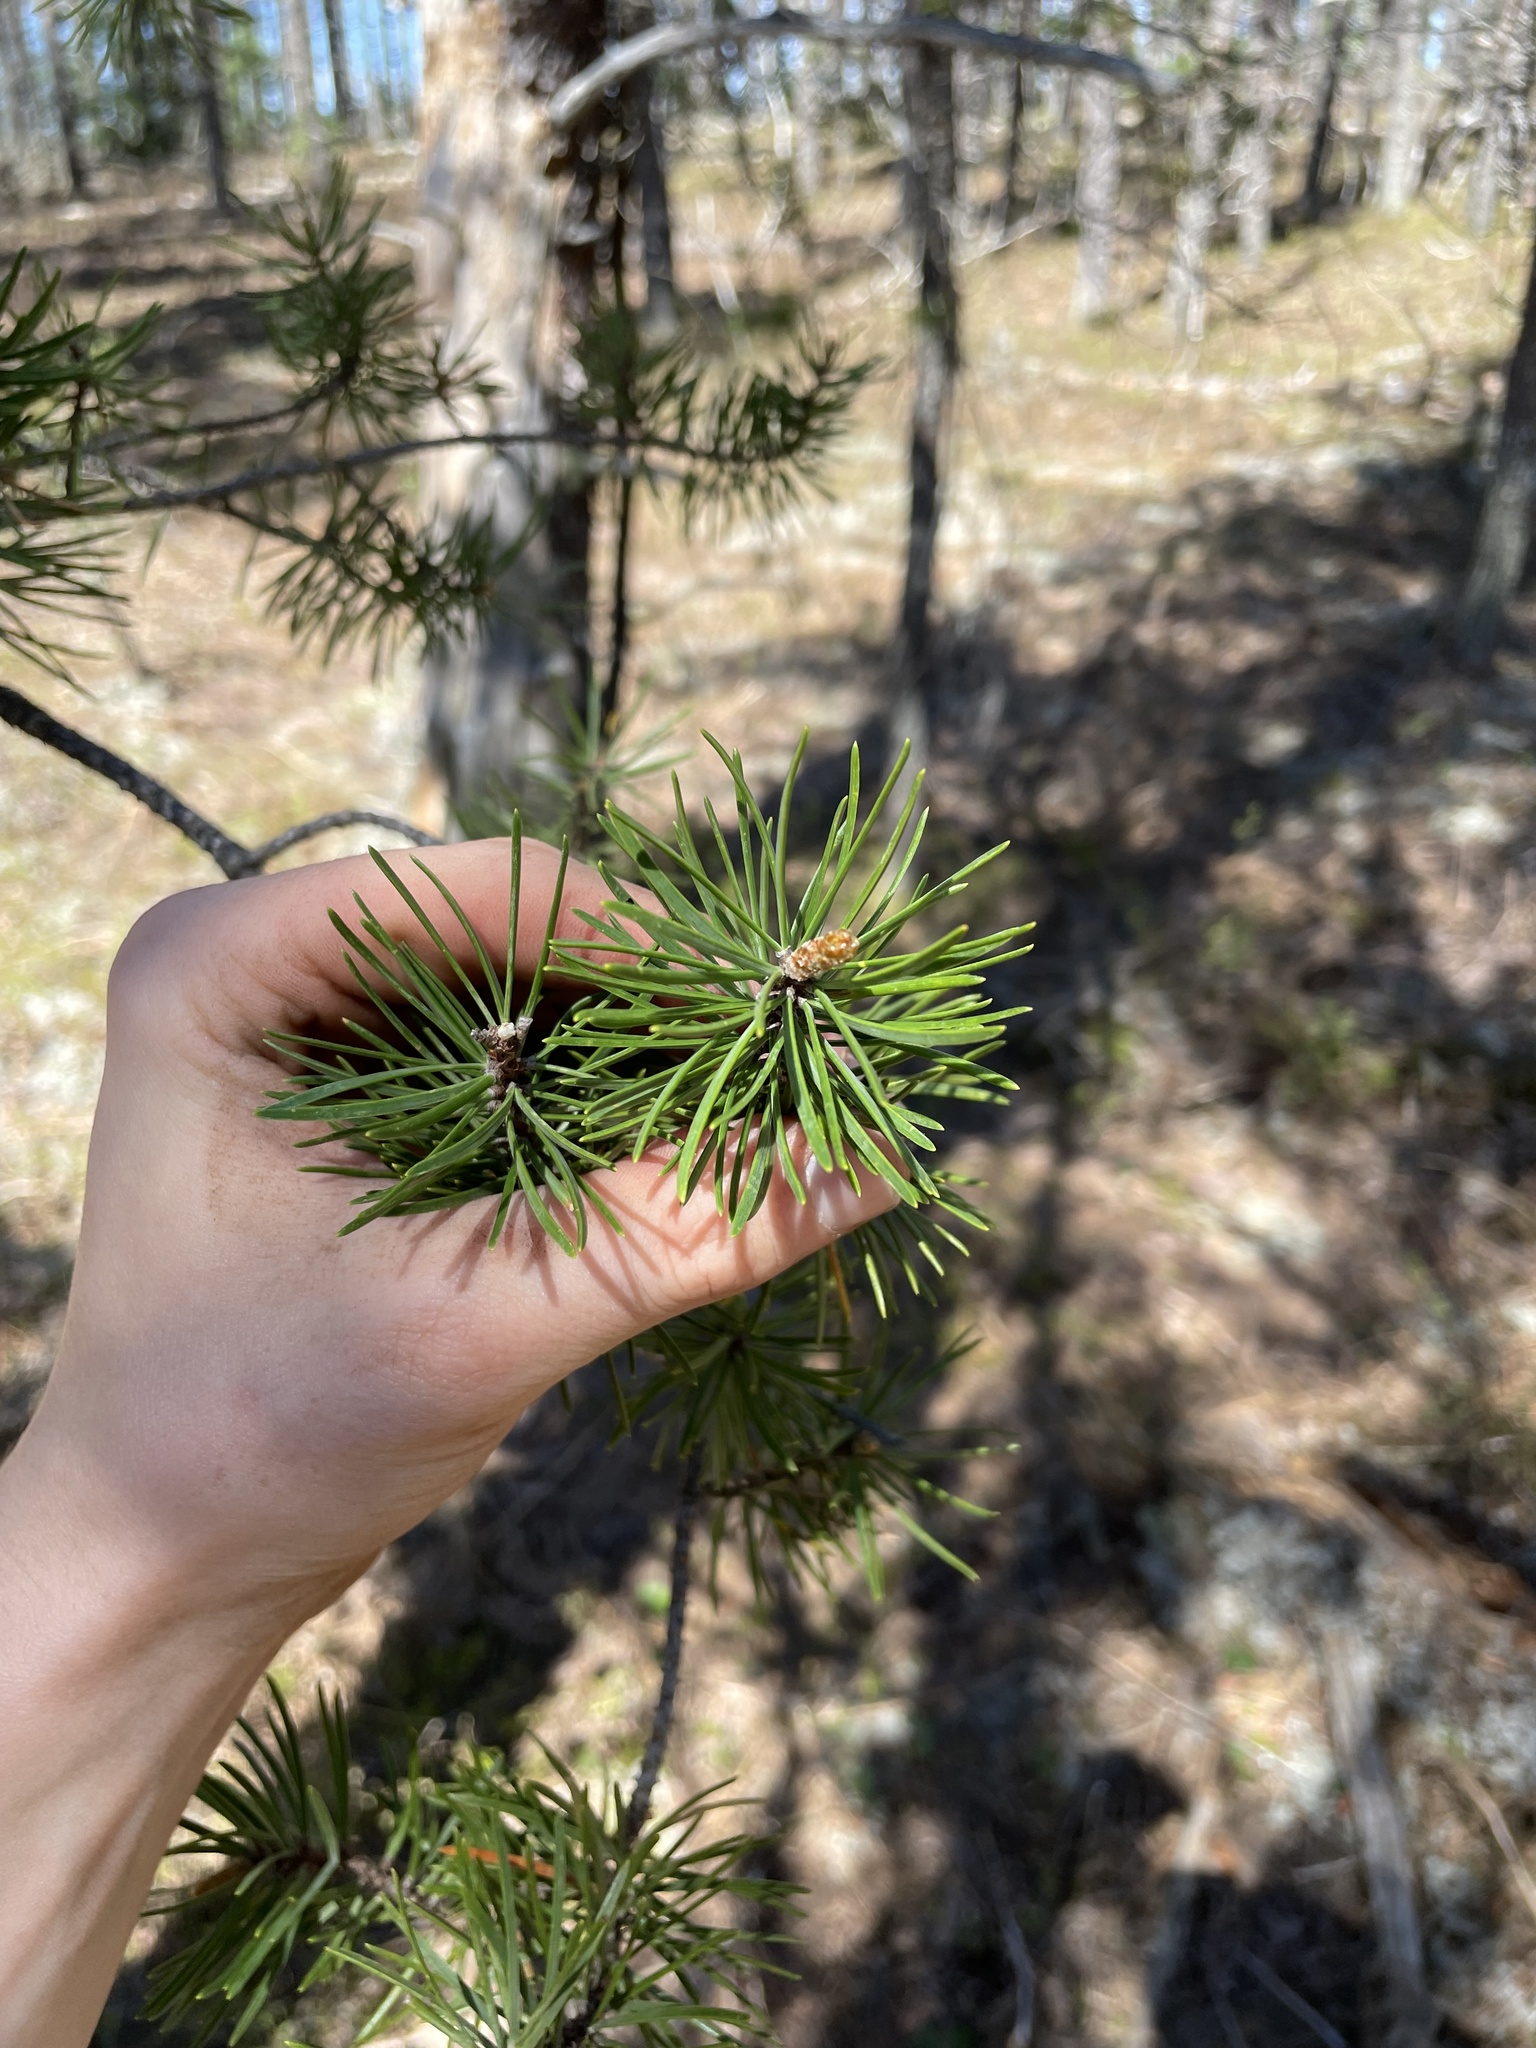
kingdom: Plantae
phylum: Tracheophyta
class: Pinopsida
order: Pinales
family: Pinaceae
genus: Pinus
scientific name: Pinus banksiana
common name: Jack pine
